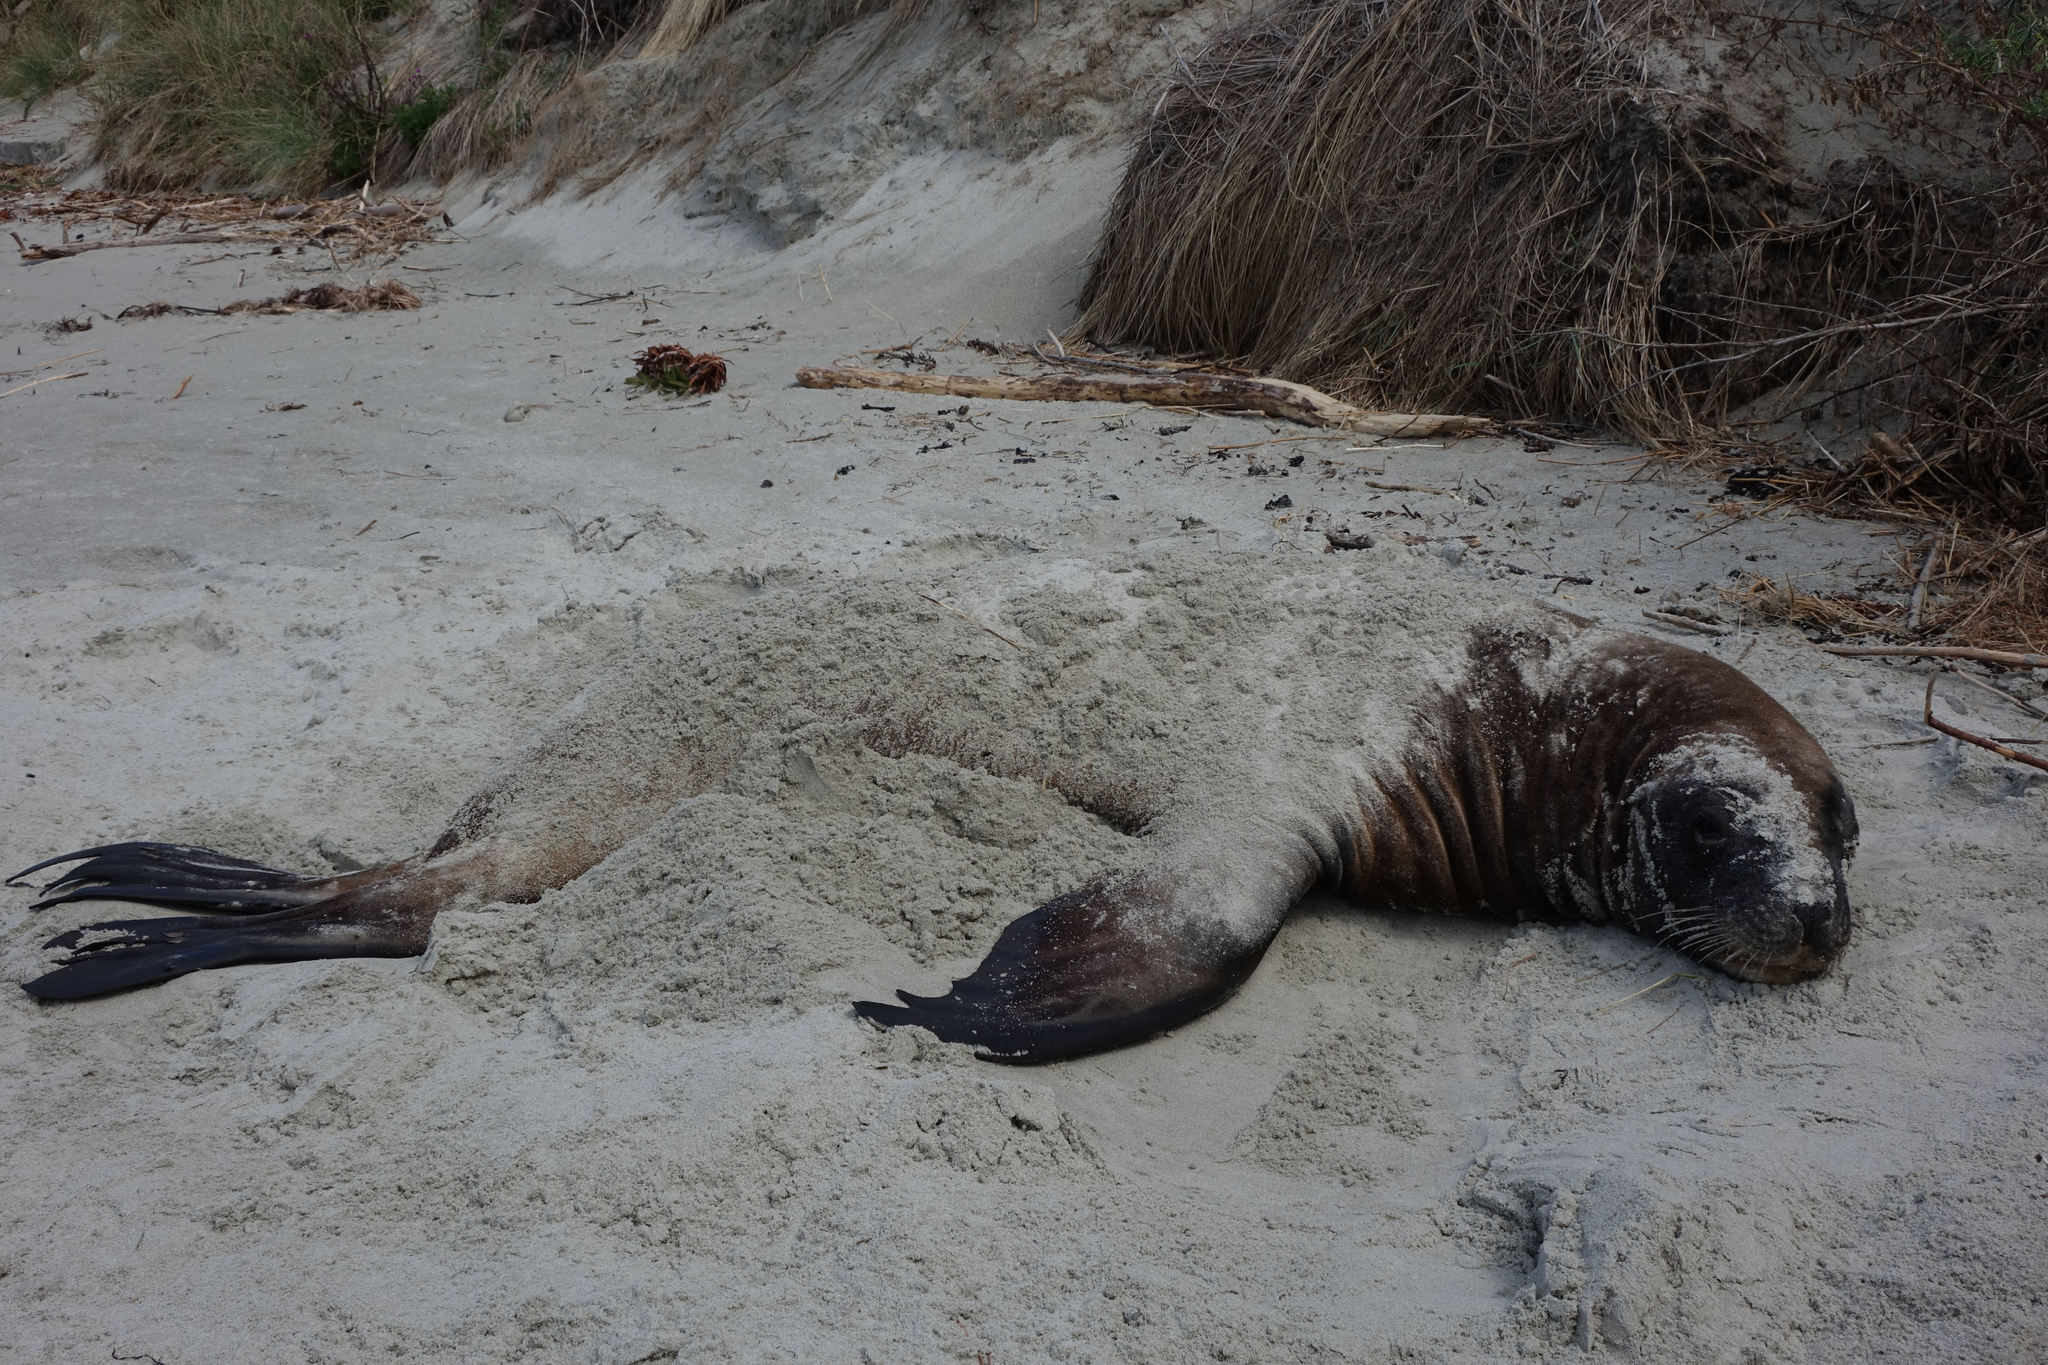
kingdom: Animalia
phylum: Chordata
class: Mammalia
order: Carnivora
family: Otariidae
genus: Phocarctos
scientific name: Phocarctos hookeri
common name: New zealand sea lion
